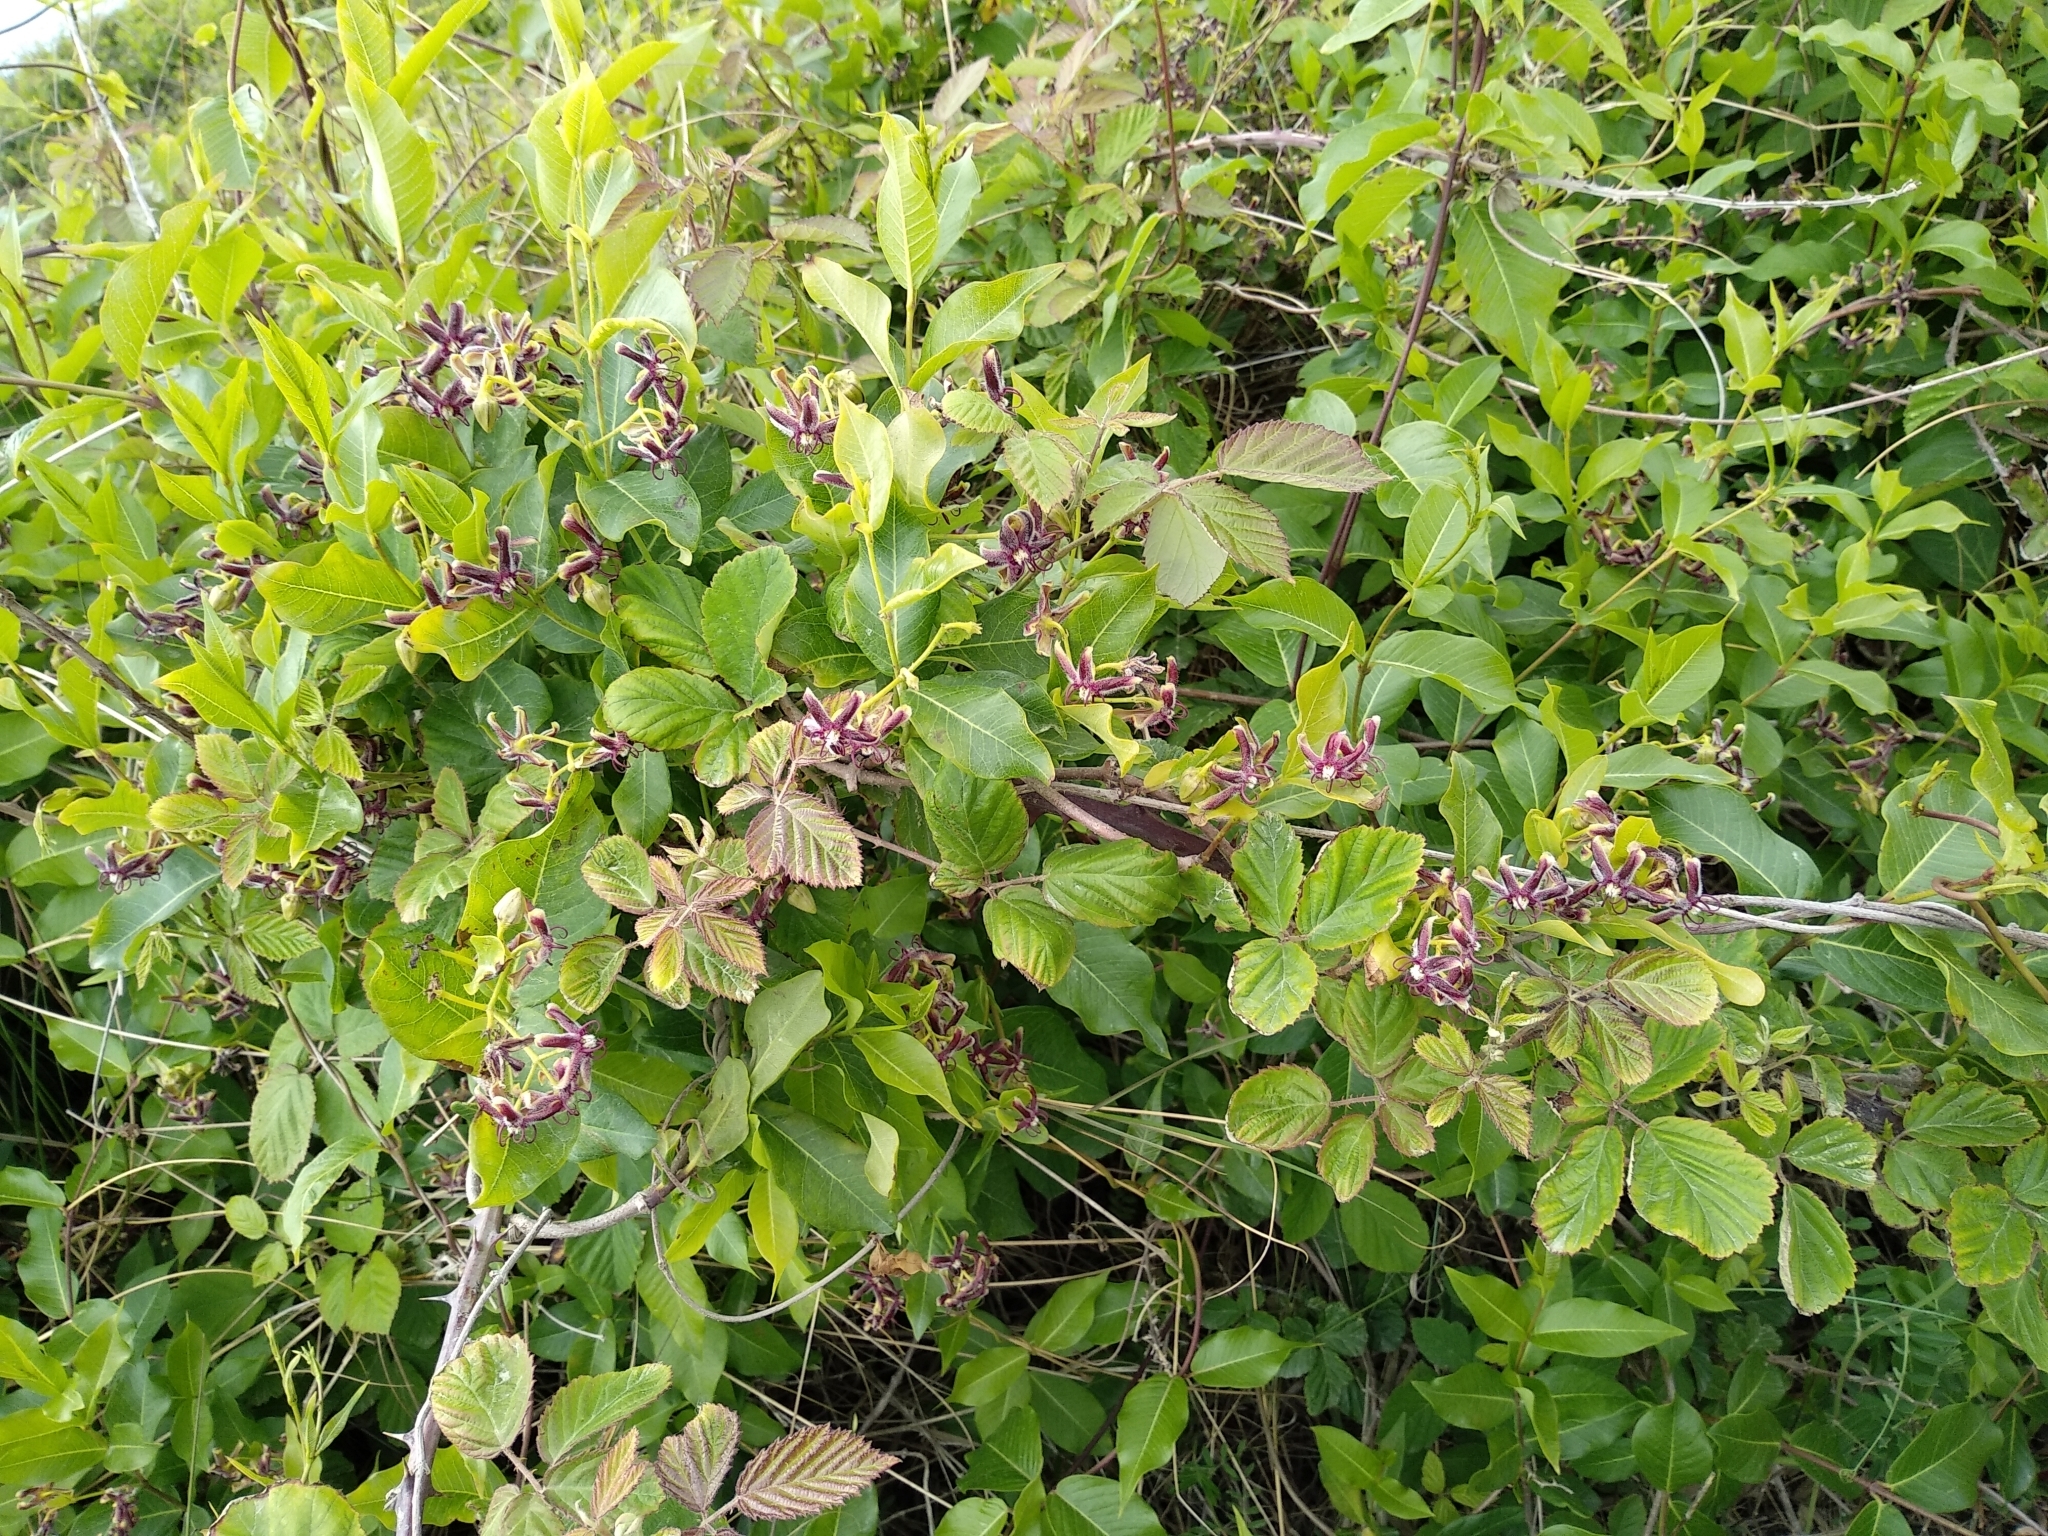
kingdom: Plantae
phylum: Tracheophyta
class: Magnoliopsida
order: Gentianales
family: Apocynaceae
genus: Periploca
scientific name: Periploca graeca
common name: Silkvine
